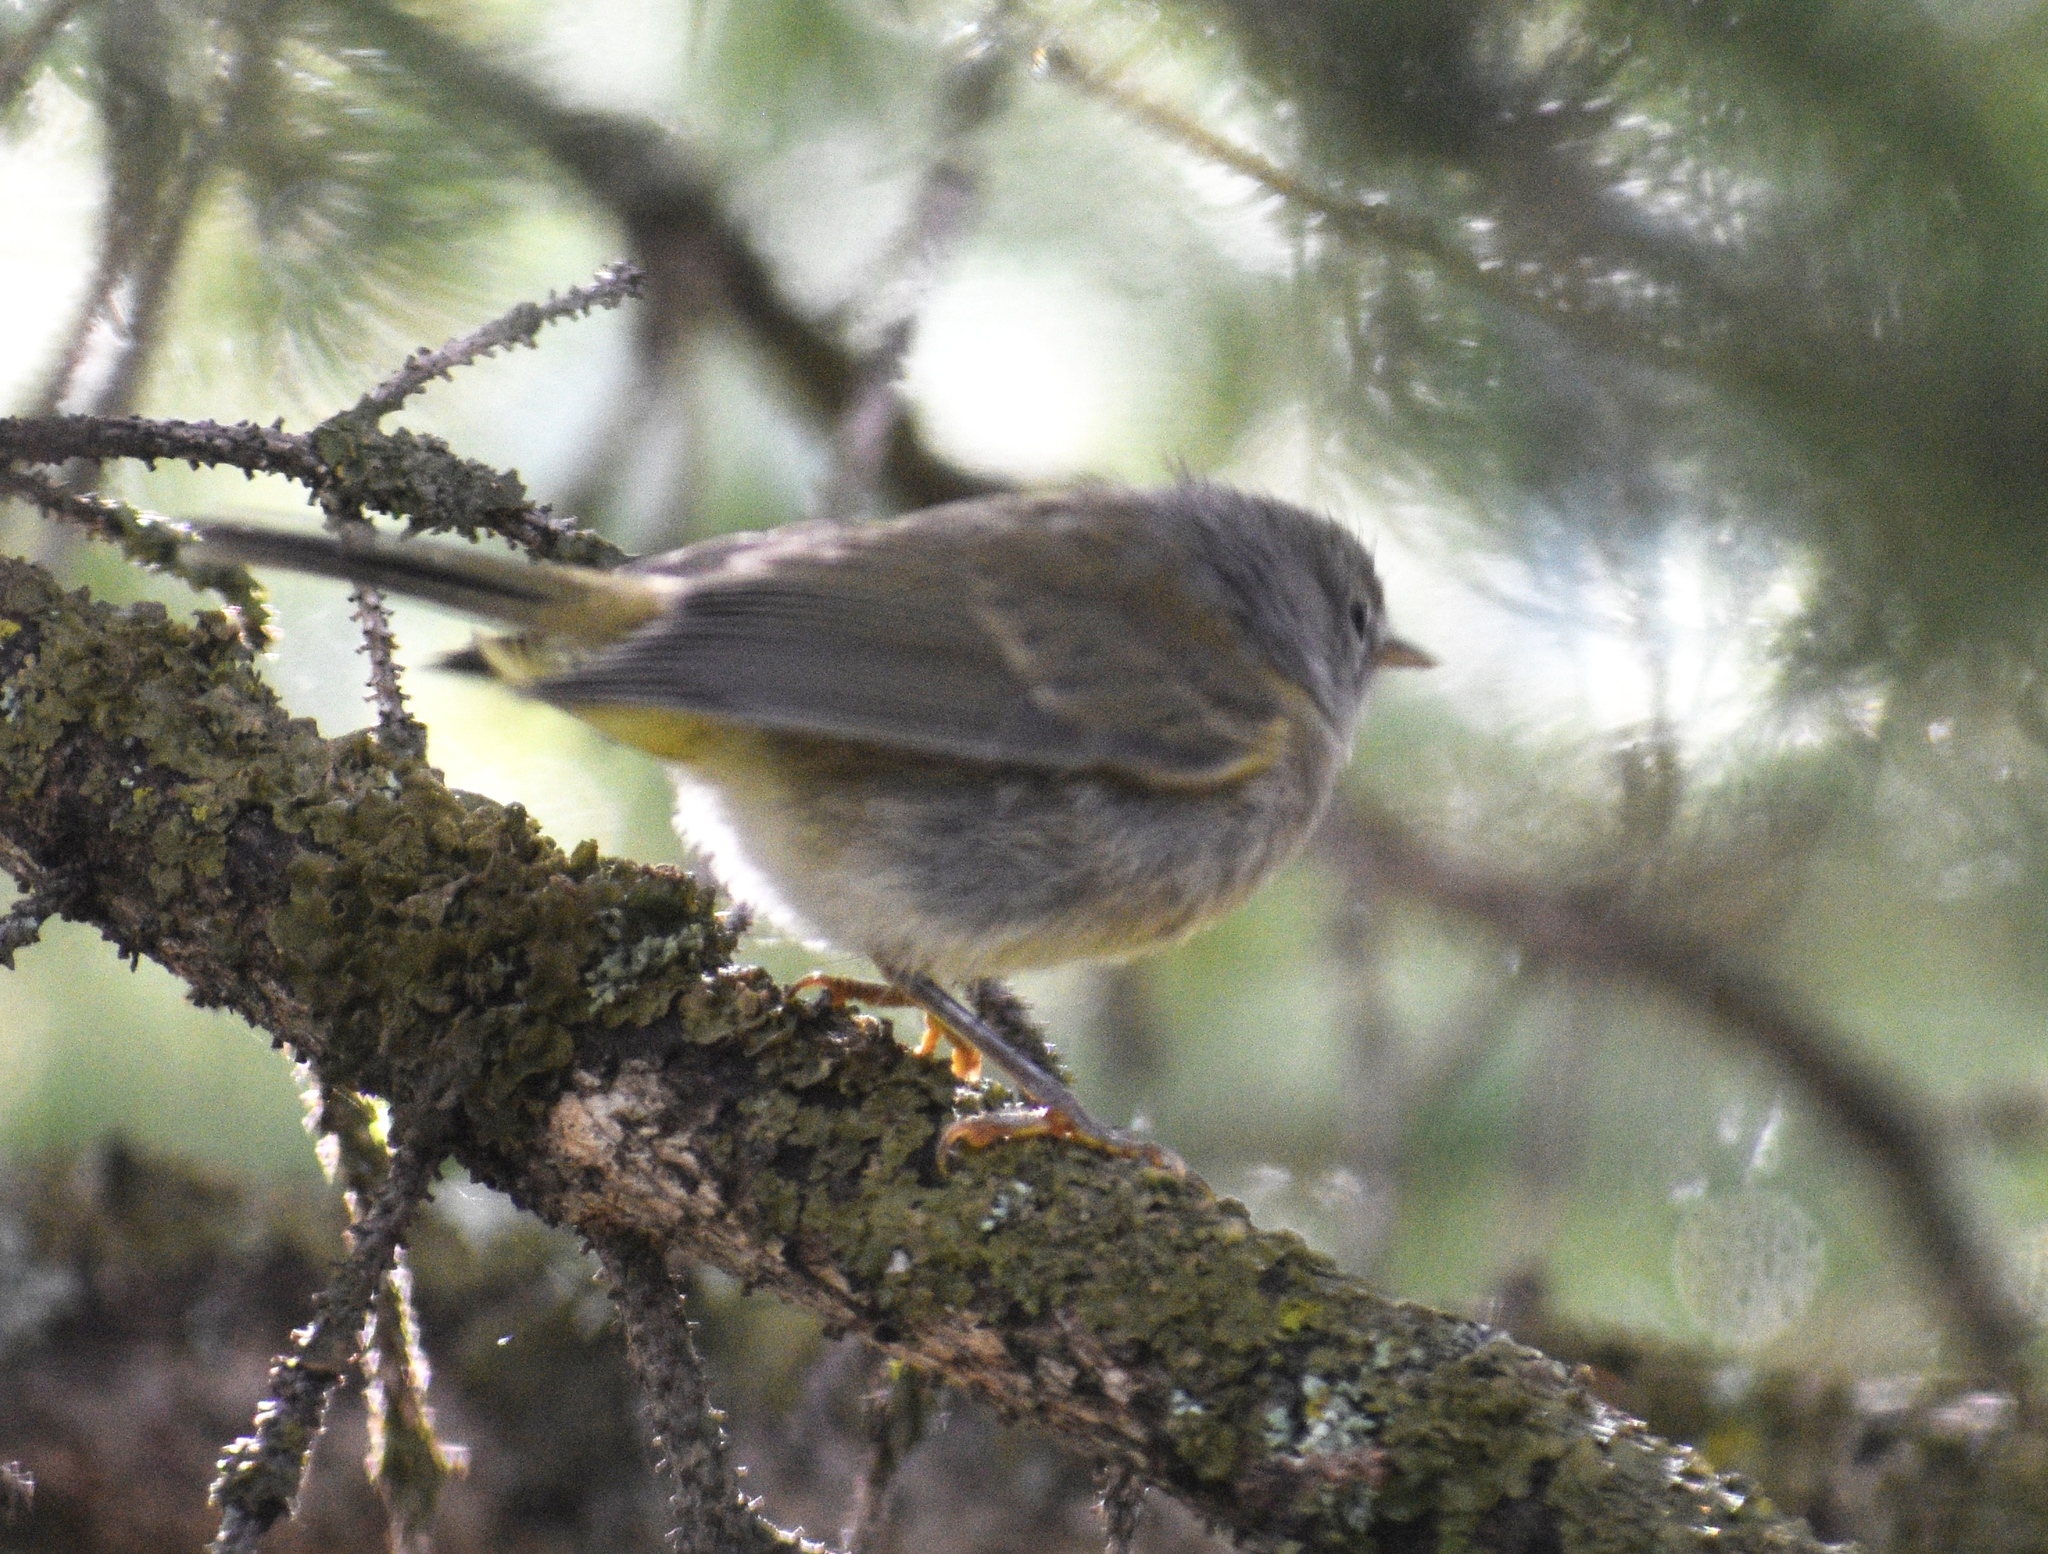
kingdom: Animalia
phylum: Chordata
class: Aves
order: Passeriformes
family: Parulidae
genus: Leiothlypis
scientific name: Leiothlypis celata
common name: Orange-crowned warbler
